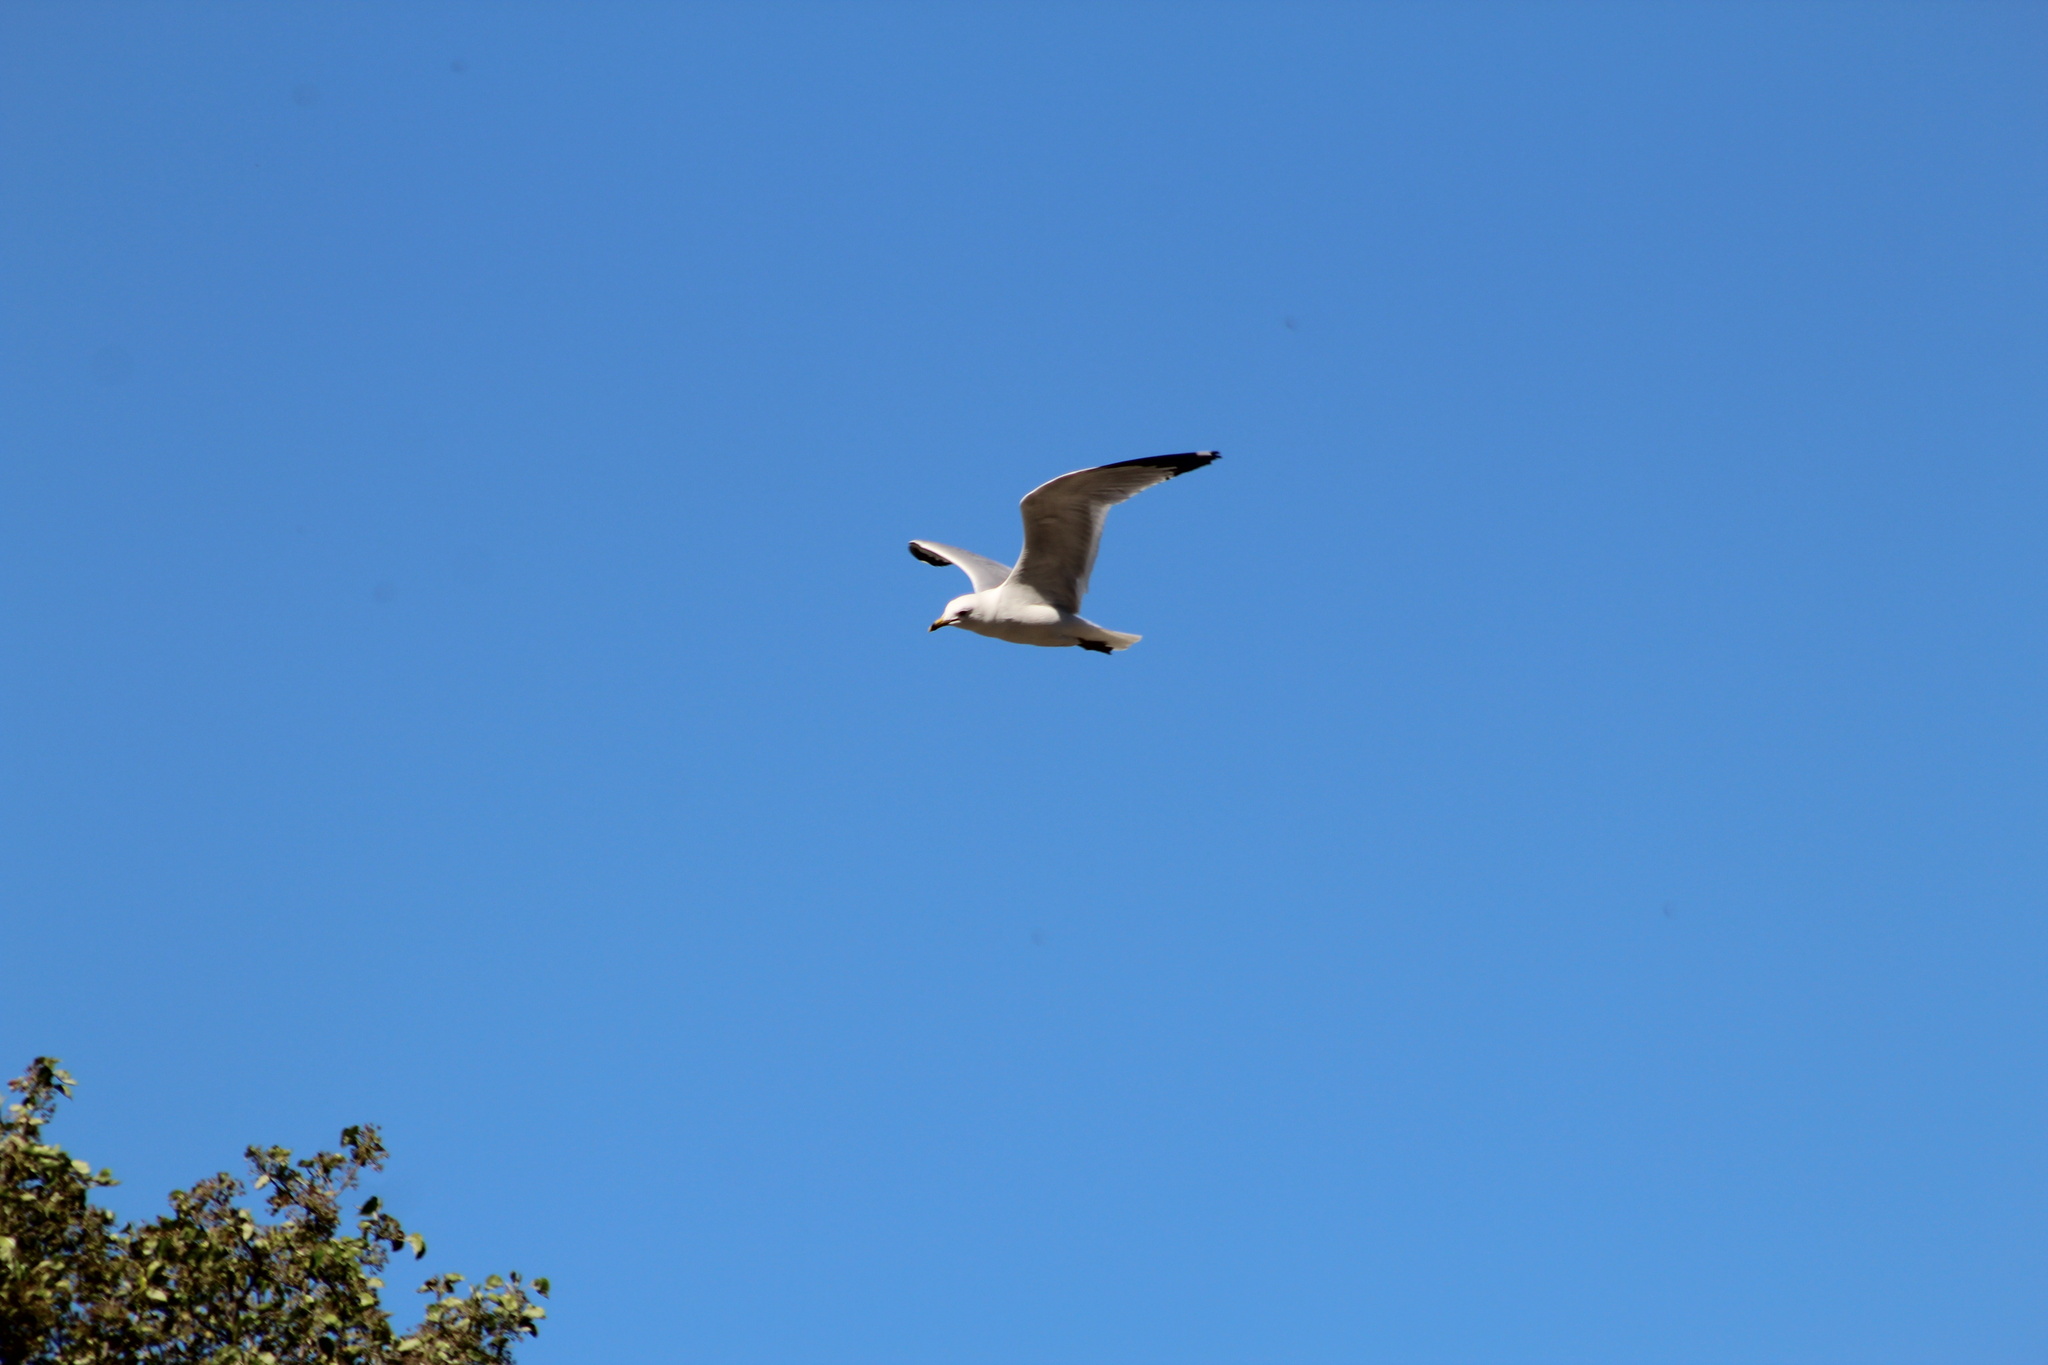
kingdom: Animalia
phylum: Chordata
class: Aves
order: Charadriiformes
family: Laridae
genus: Larus
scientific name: Larus delawarensis
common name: Ring-billed gull
